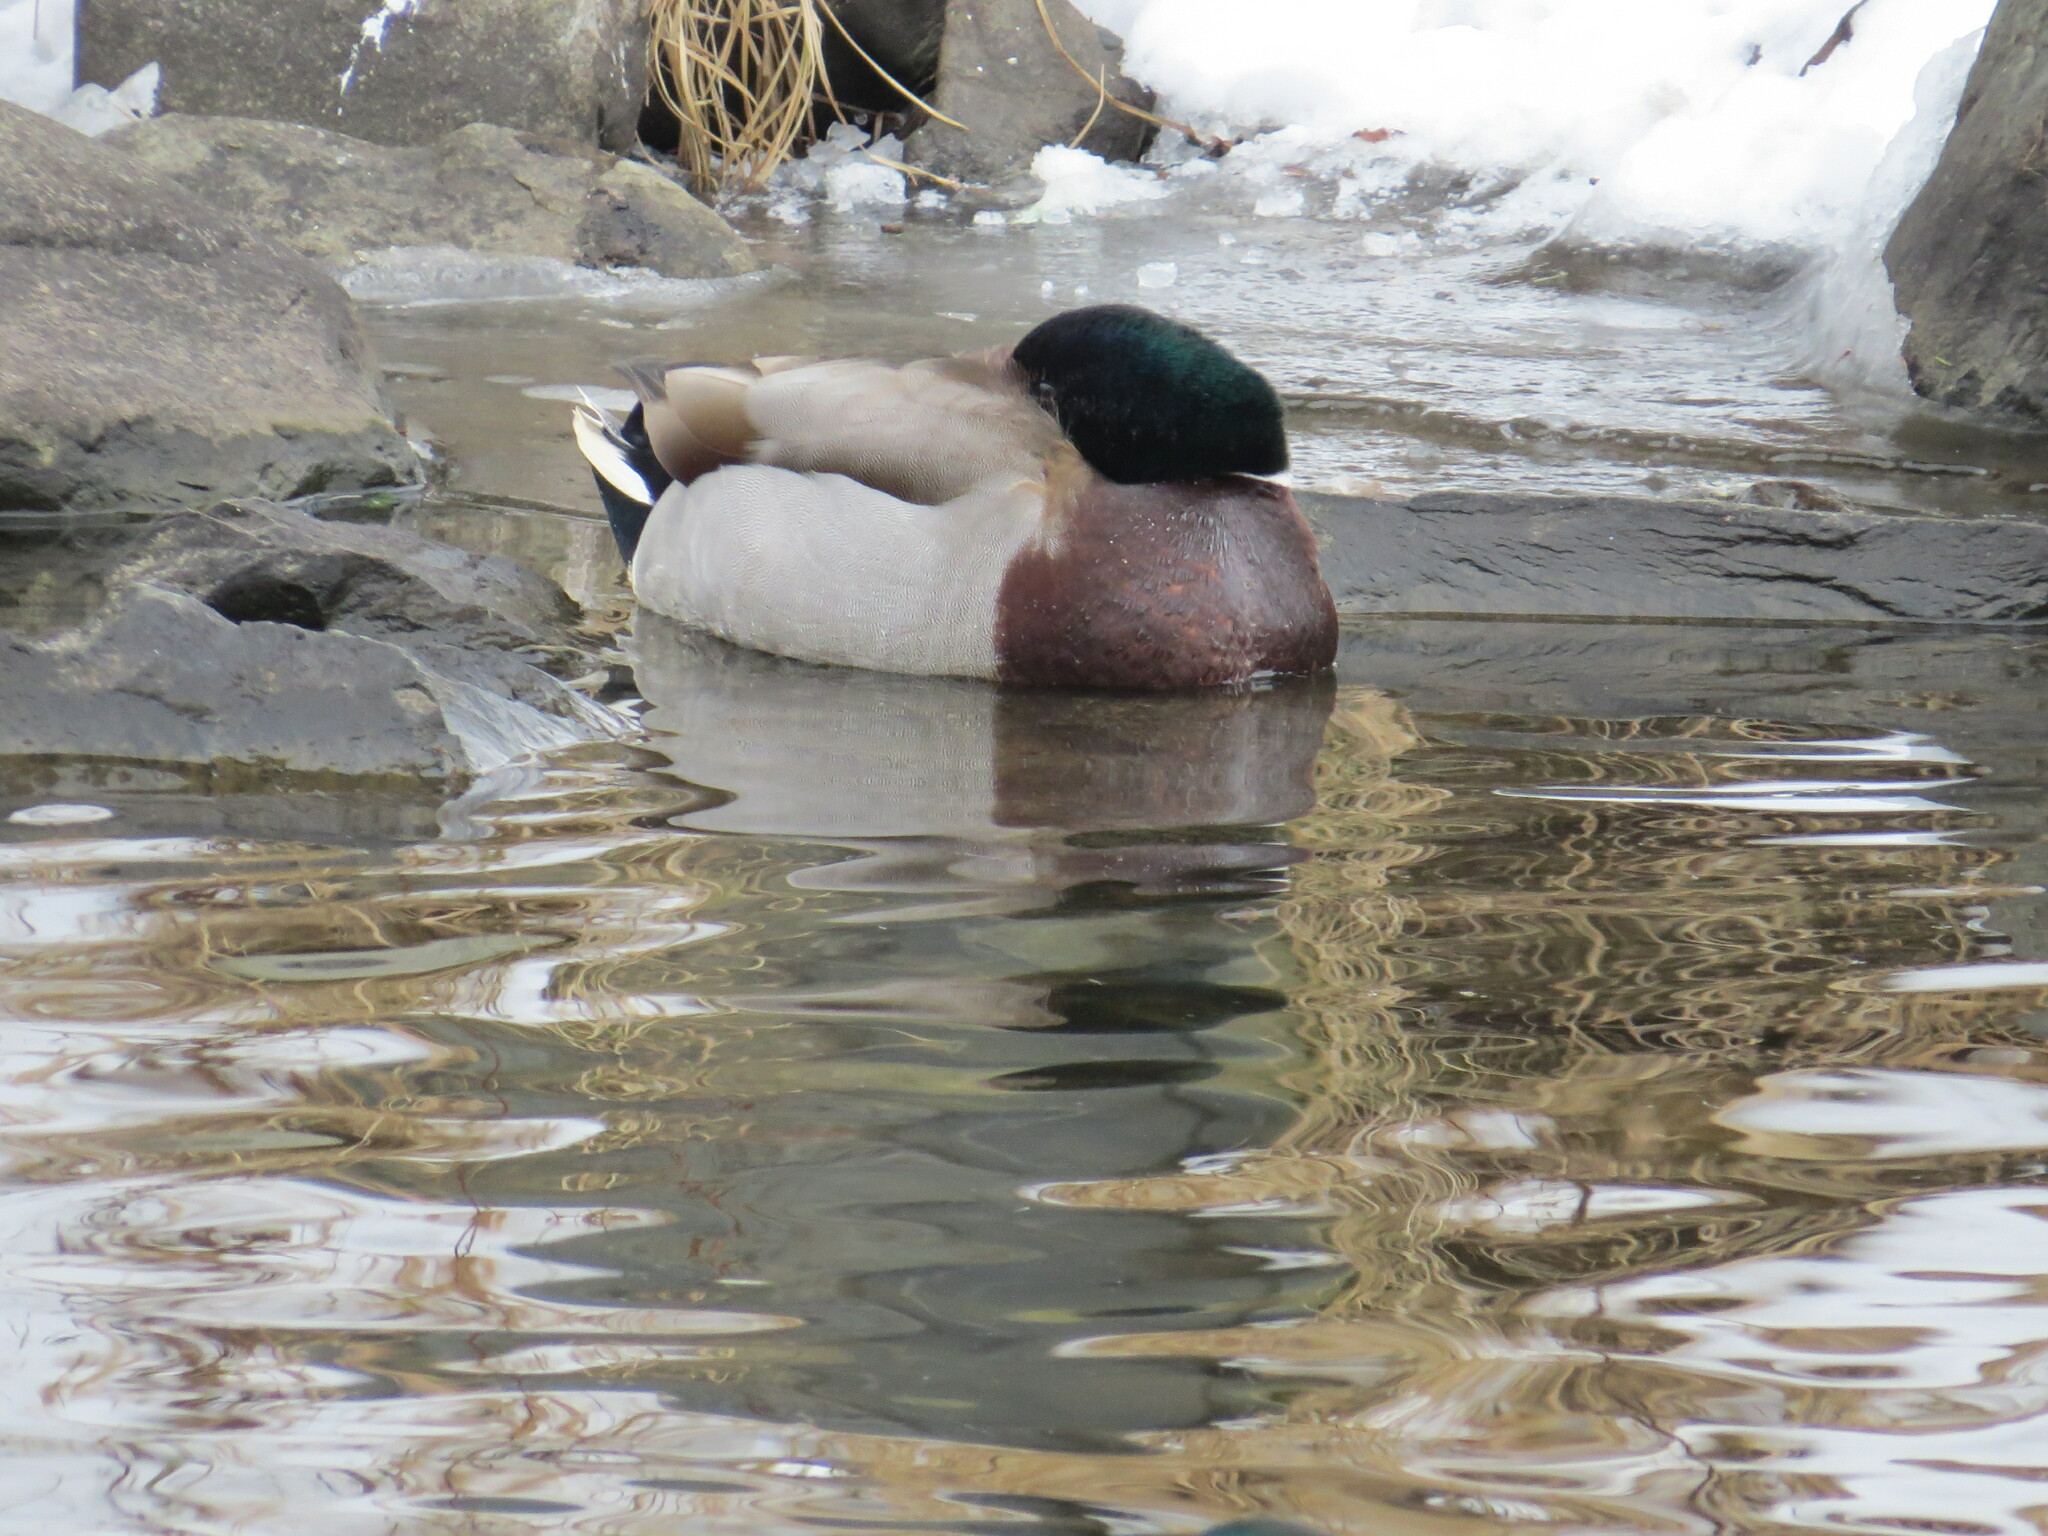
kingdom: Animalia
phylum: Chordata
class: Aves
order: Anseriformes
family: Anatidae
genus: Anas
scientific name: Anas platyrhynchos
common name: Mallard
